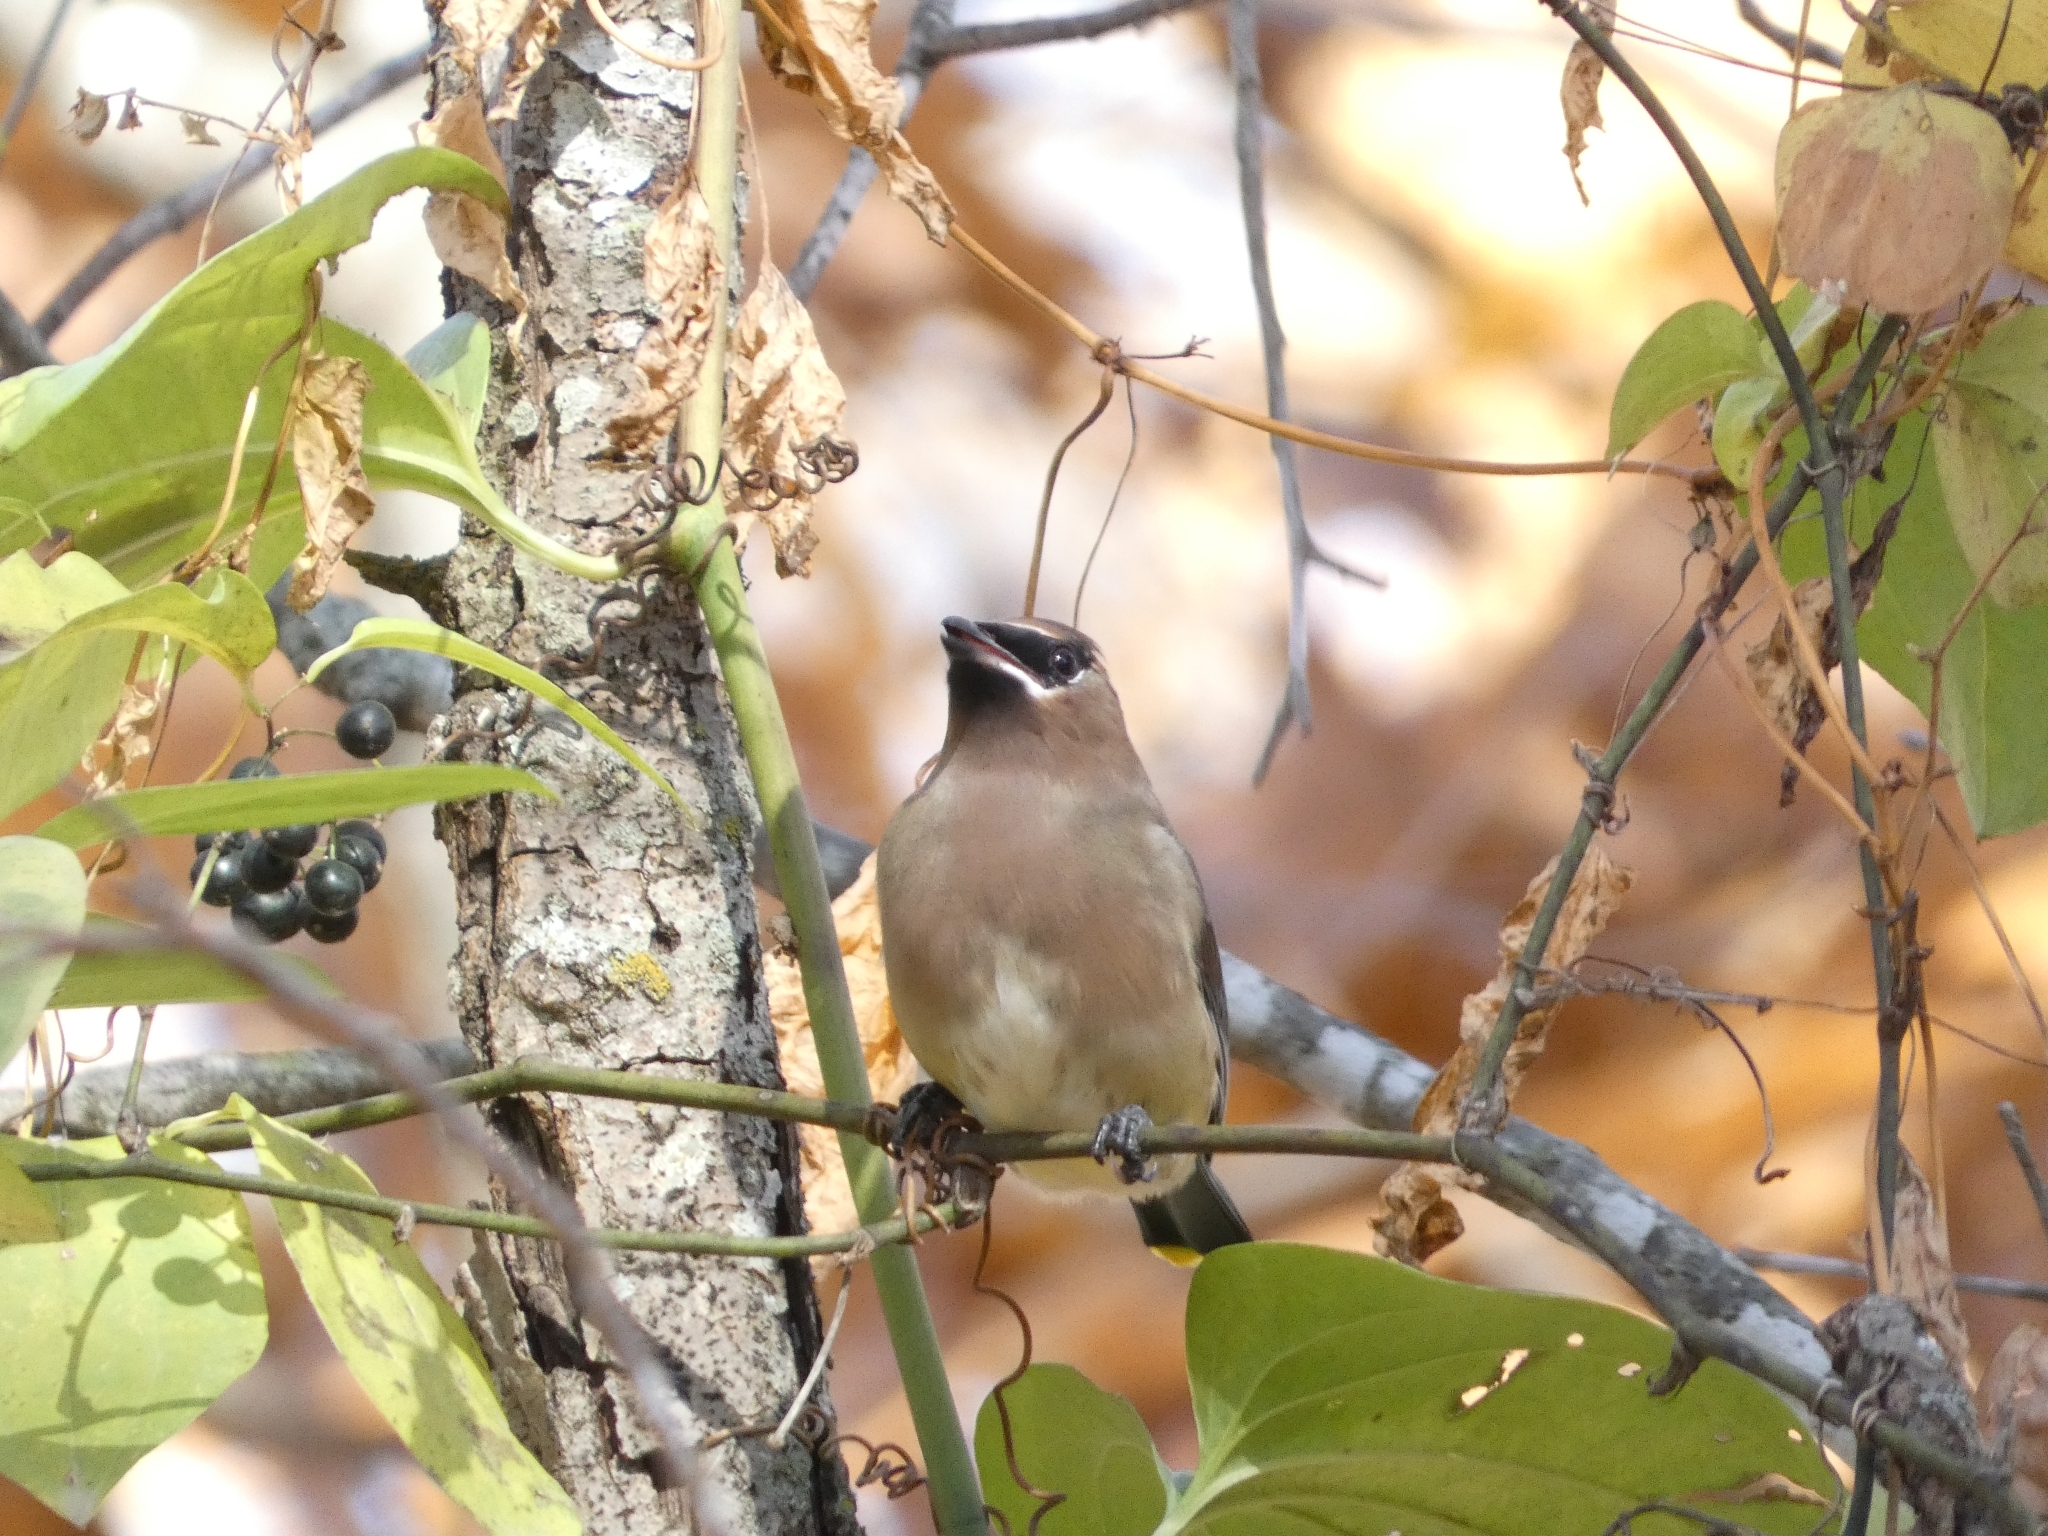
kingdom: Animalia
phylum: Chordata
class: Aves
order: Passeriformes
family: Bombycillidae
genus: Bombycilla
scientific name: Bombycilla cedrorum
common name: Cedar waxwing
